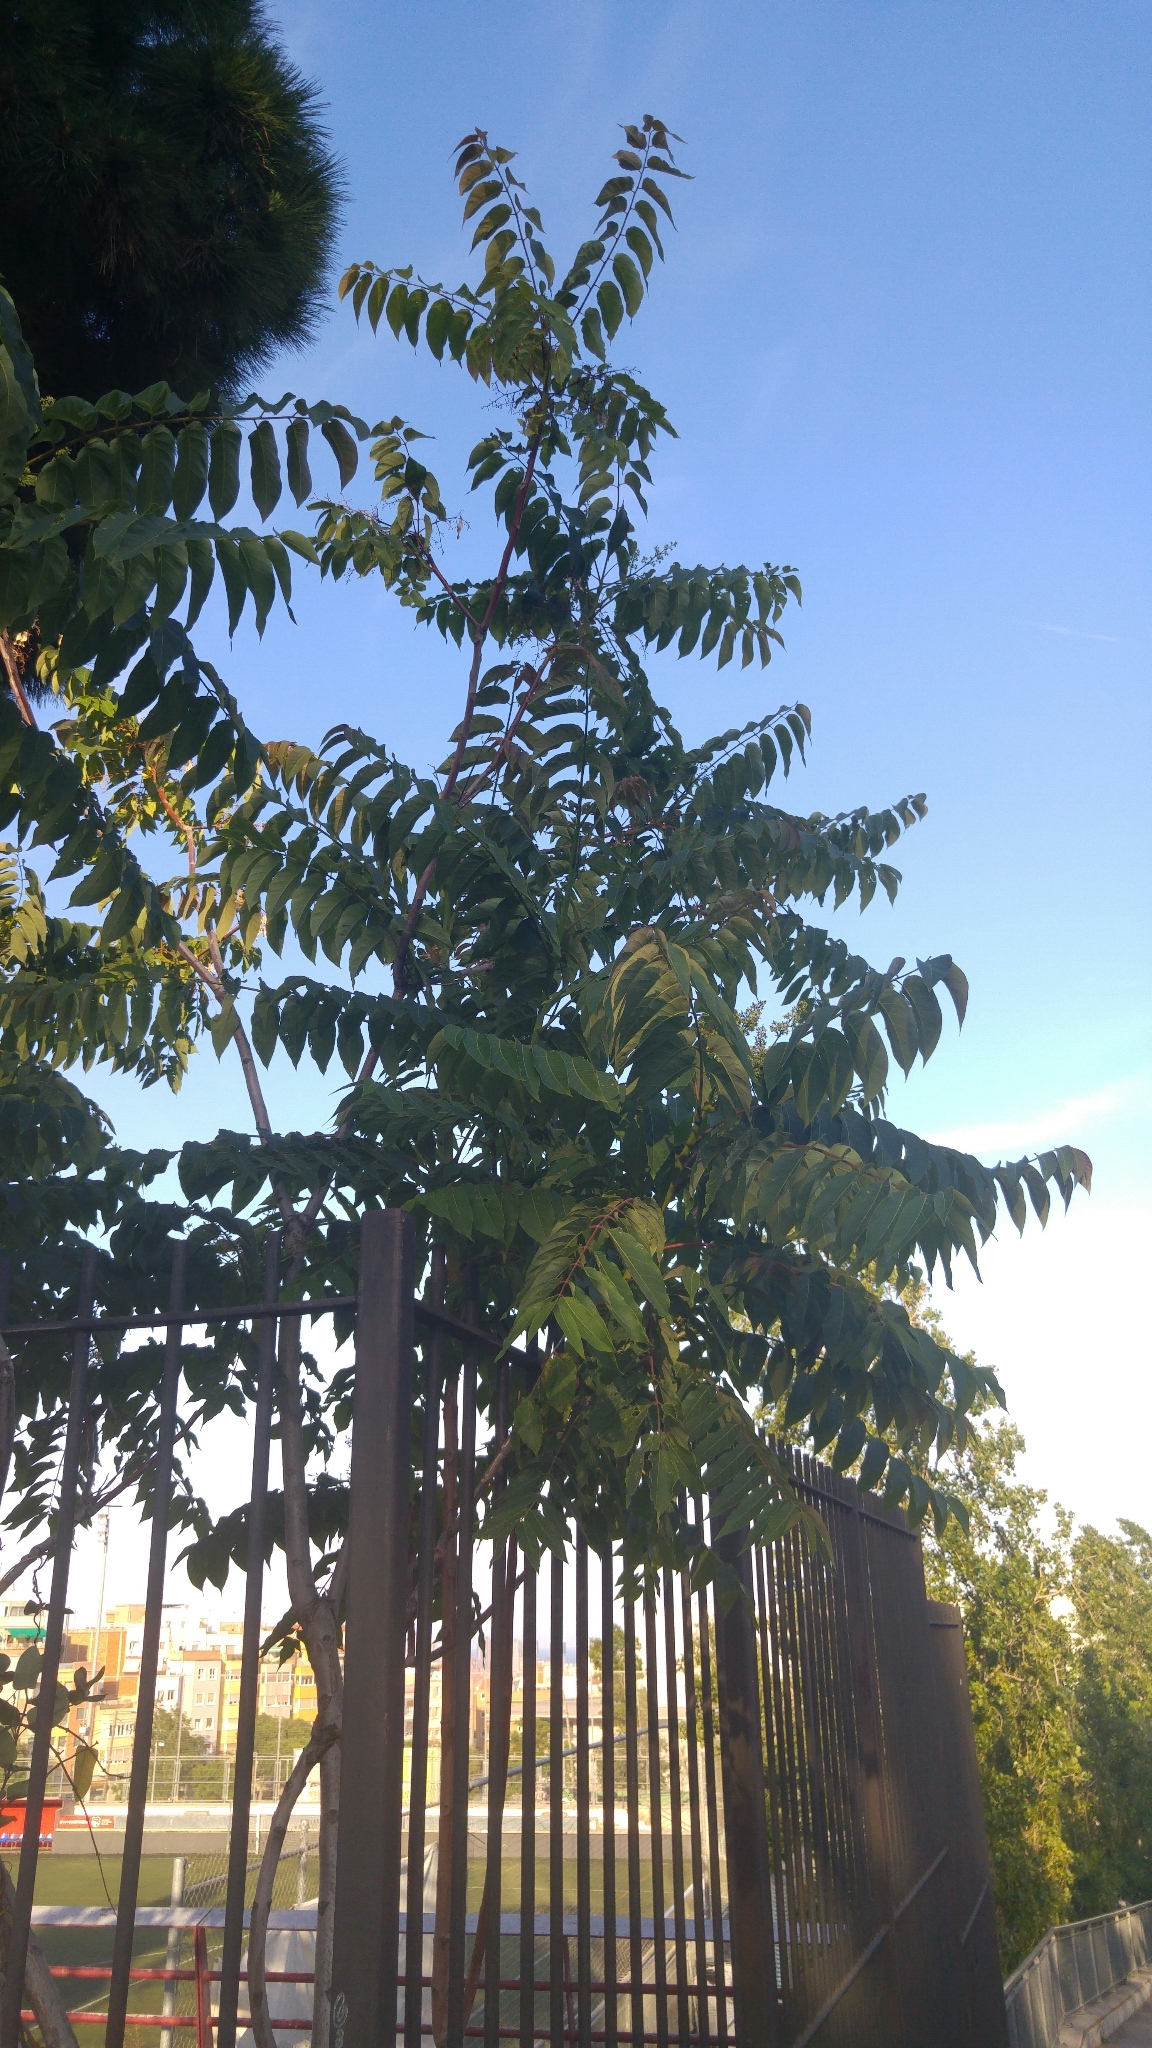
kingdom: Plantae
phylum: Tracheophyta
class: Magnoliopsida
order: Sapindales
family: Simaroubaceae
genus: Ailanthus
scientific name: Ailanthus altissima
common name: Tree-of-heaven
